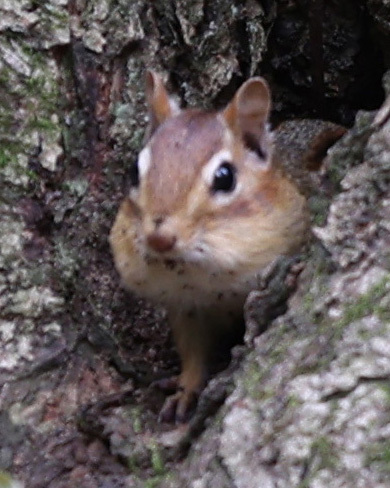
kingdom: Animalia
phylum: Chordata
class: Mammalia
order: Rodentia
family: Sciuridae
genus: Tamias
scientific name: Tamias striatus
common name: Eastern chipmunk
